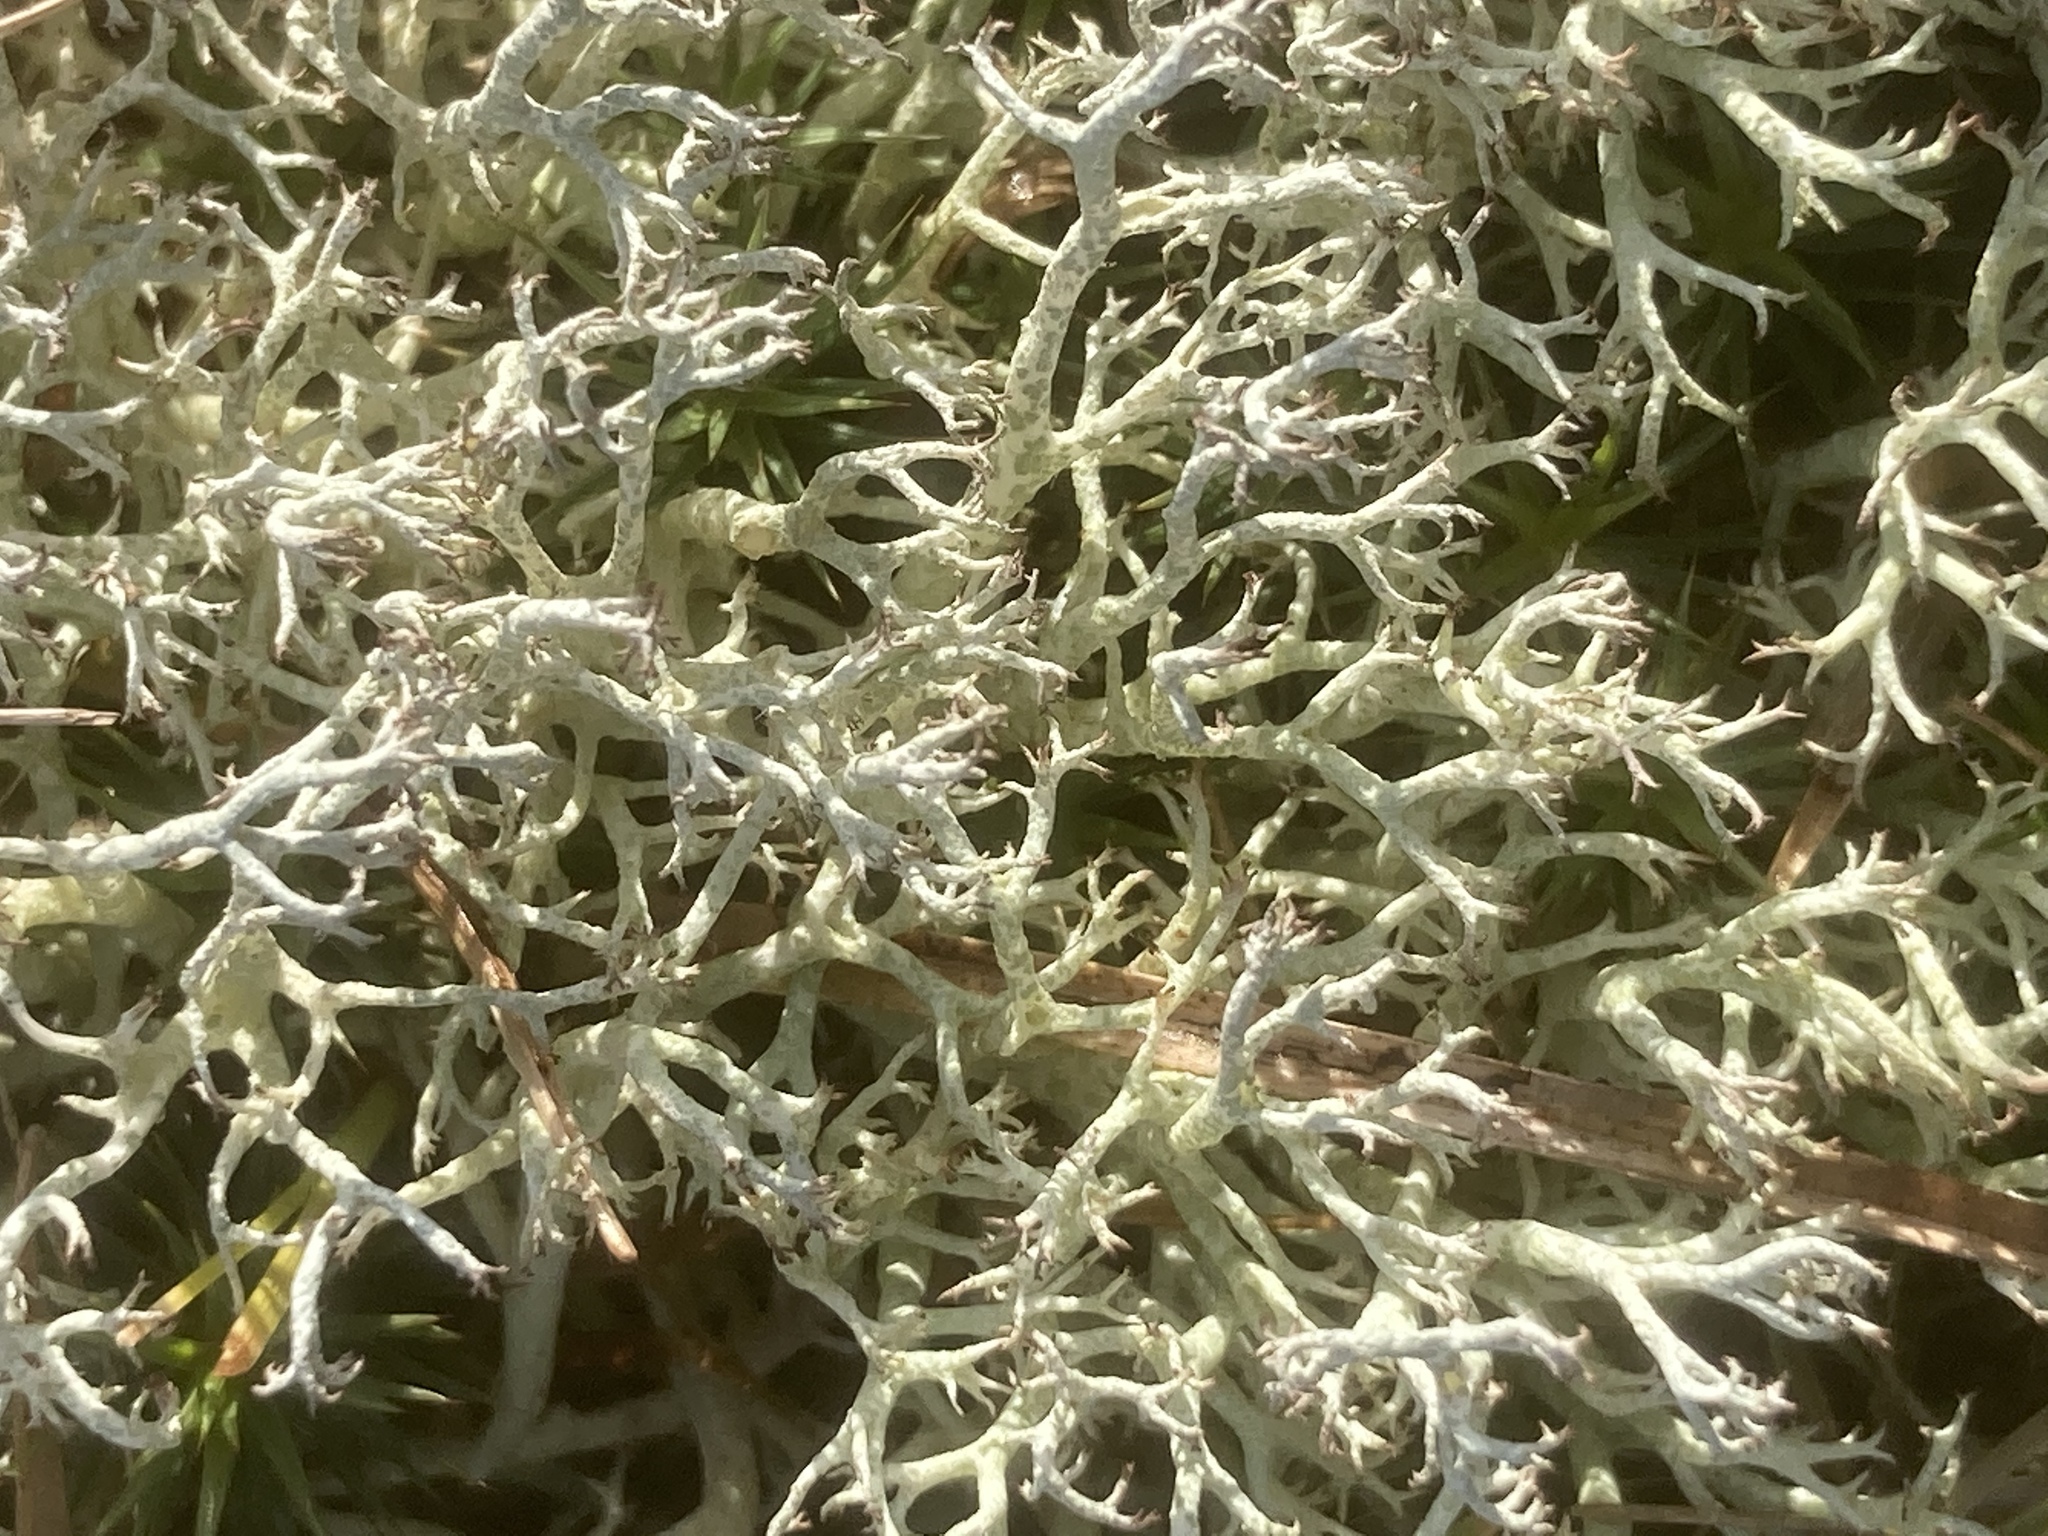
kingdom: Fungi
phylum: Ascomycota
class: Lecanoromycetes
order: Lecanorales
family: Cladoniaceae
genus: Cladonia
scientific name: Cladonia portentosa
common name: Reindeer lichen
